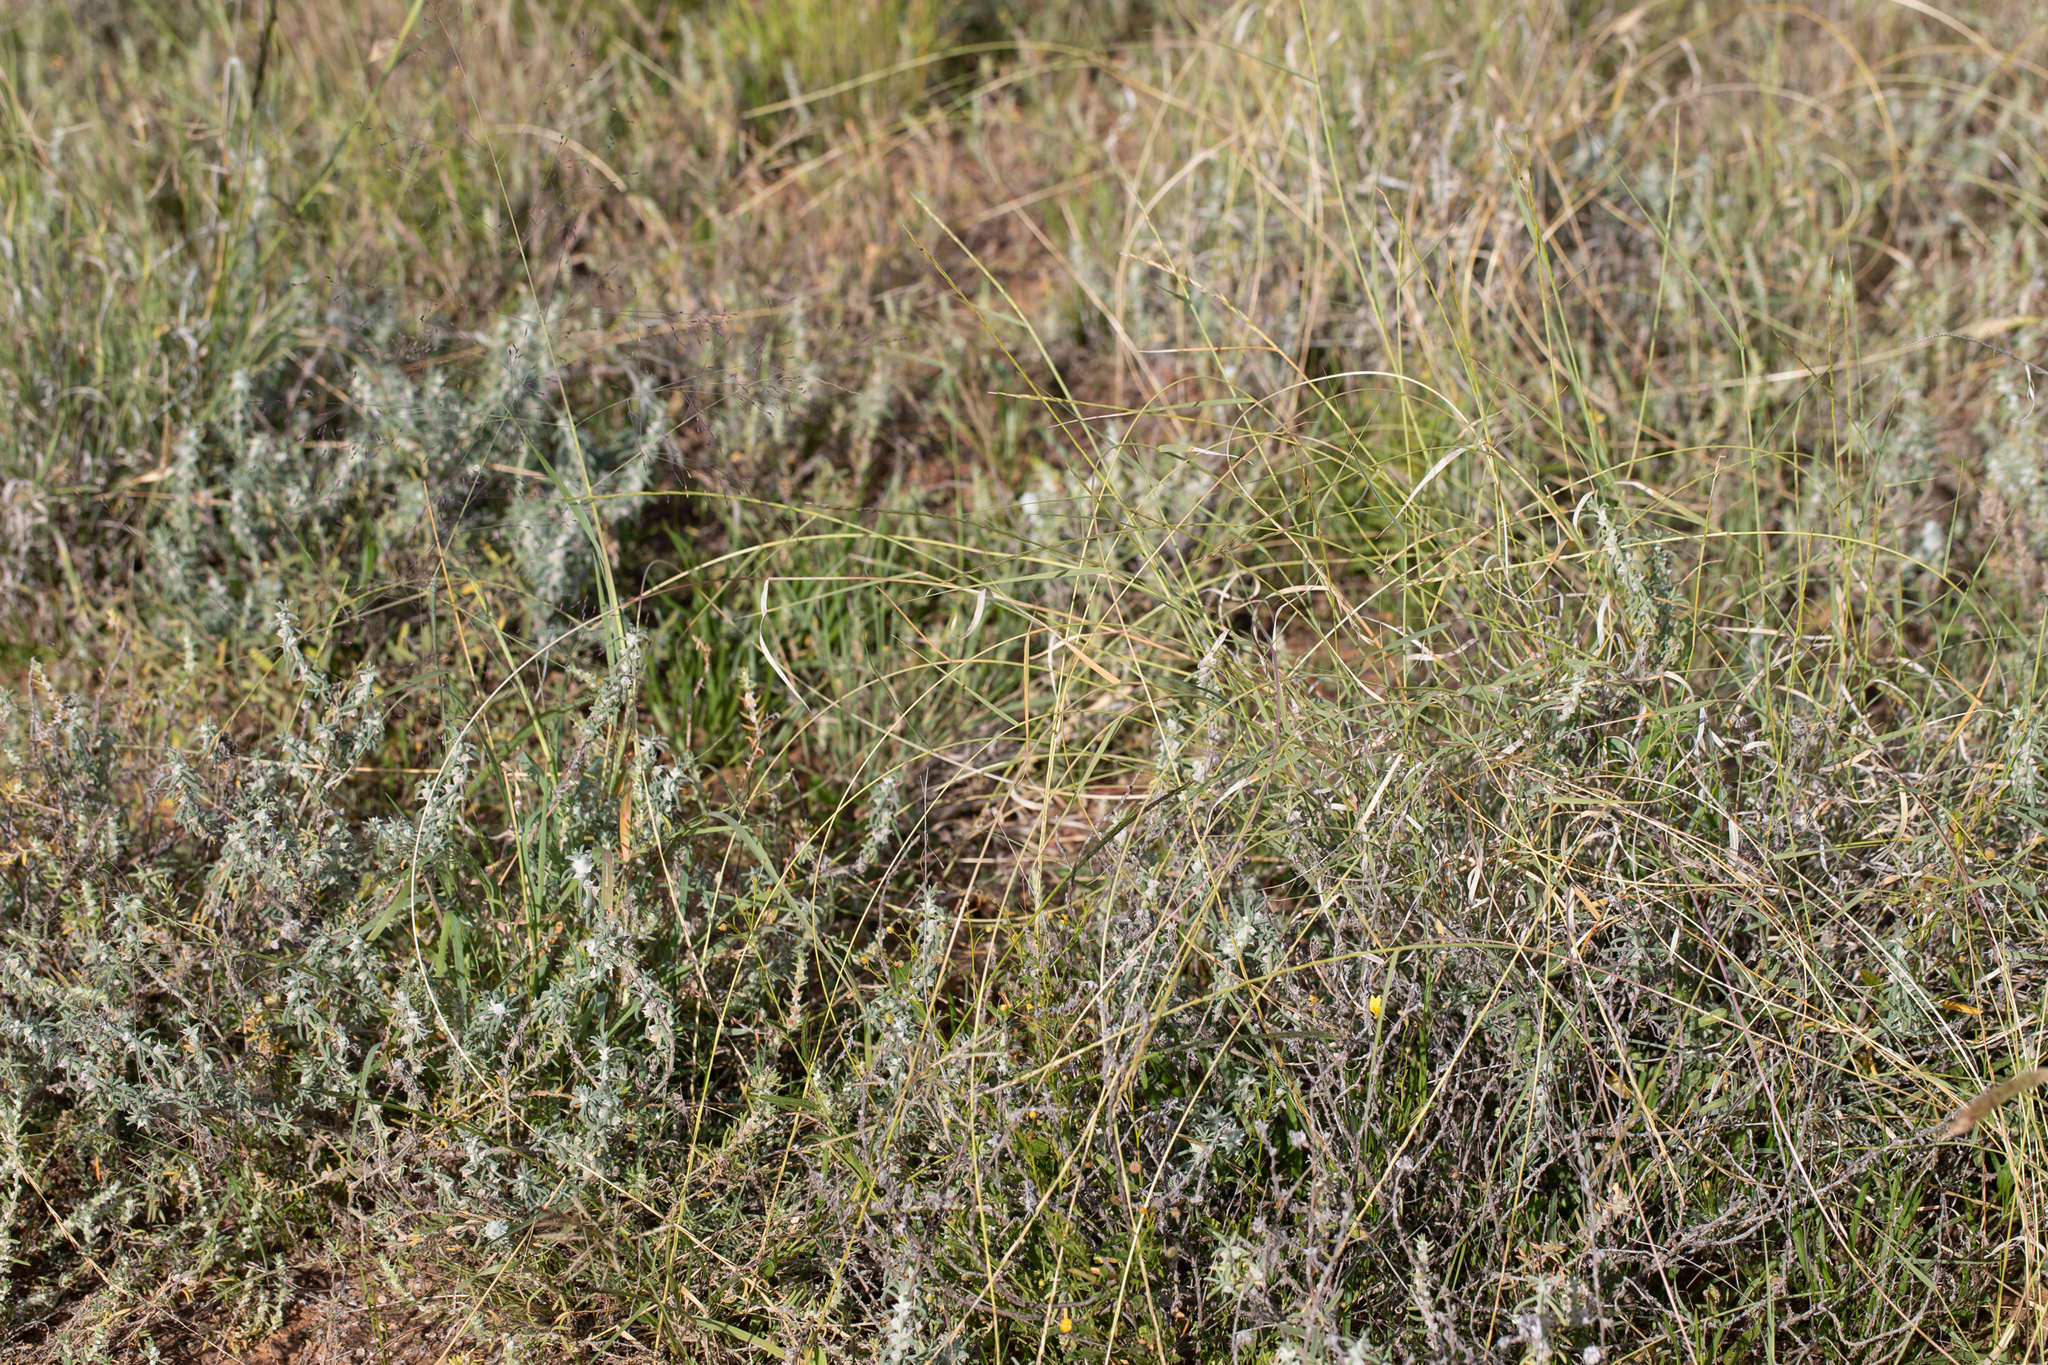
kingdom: Plantae
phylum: Tracheophyta
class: Liliopsida
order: Poales
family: Poaceae
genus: Astrebla
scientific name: Astrebla elymoides
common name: Hoop mitchell grass
